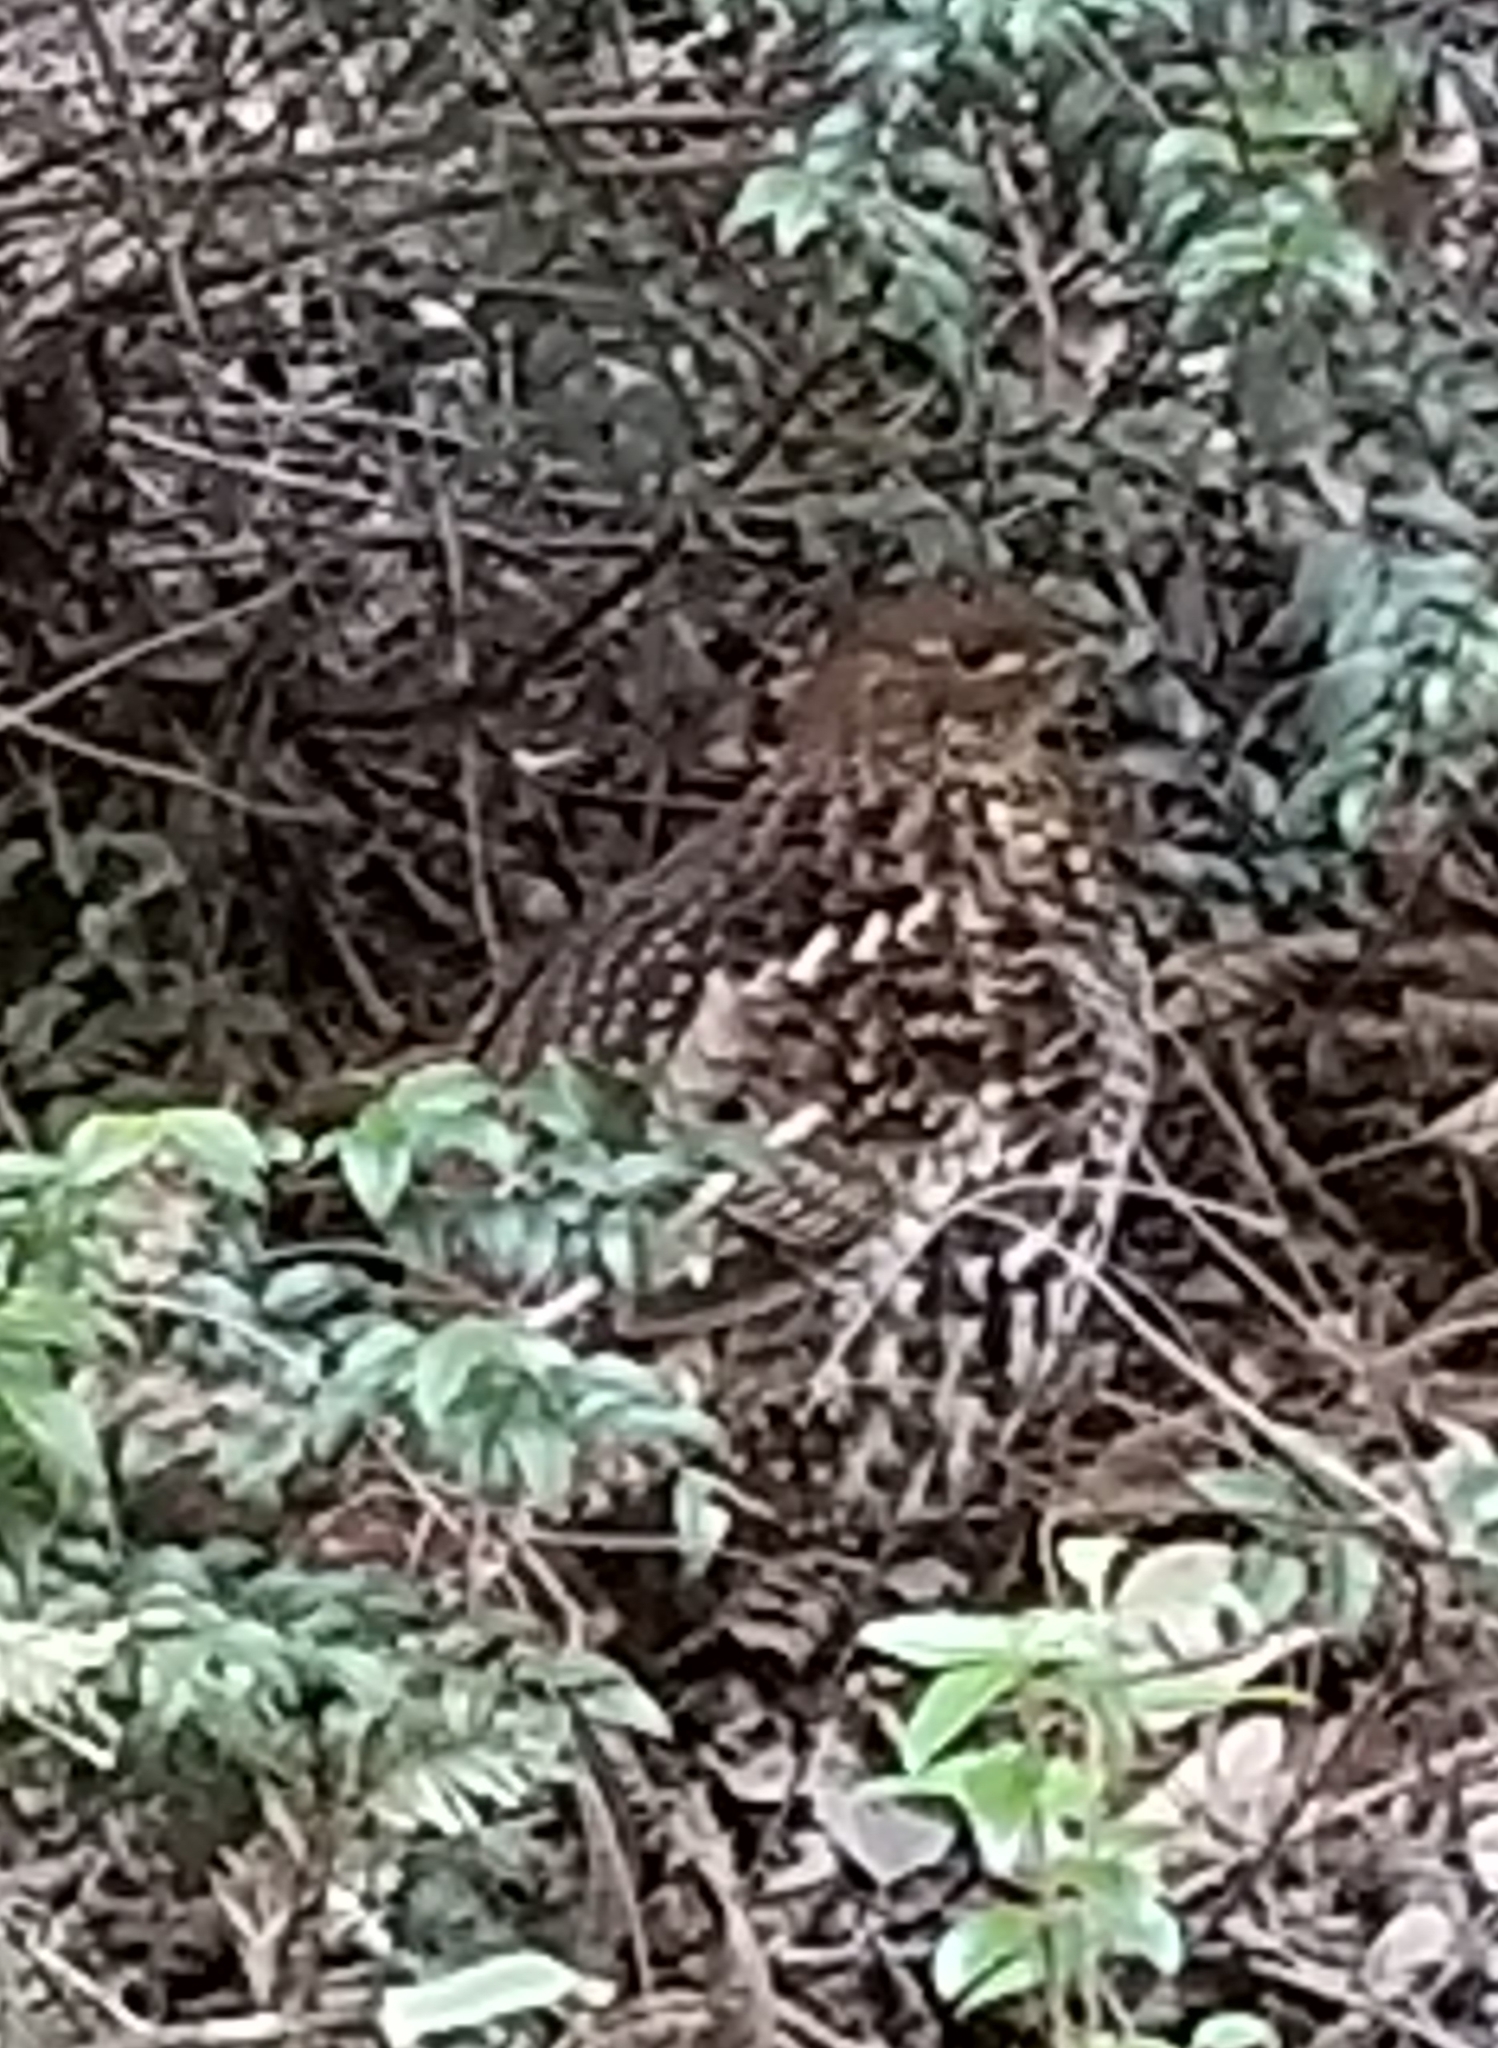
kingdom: Animalia
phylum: Chordata
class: Aves
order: Galliformes
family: Phasianidae
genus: Bonasa
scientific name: Bonasa umbellus
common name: Ruffed grouse
